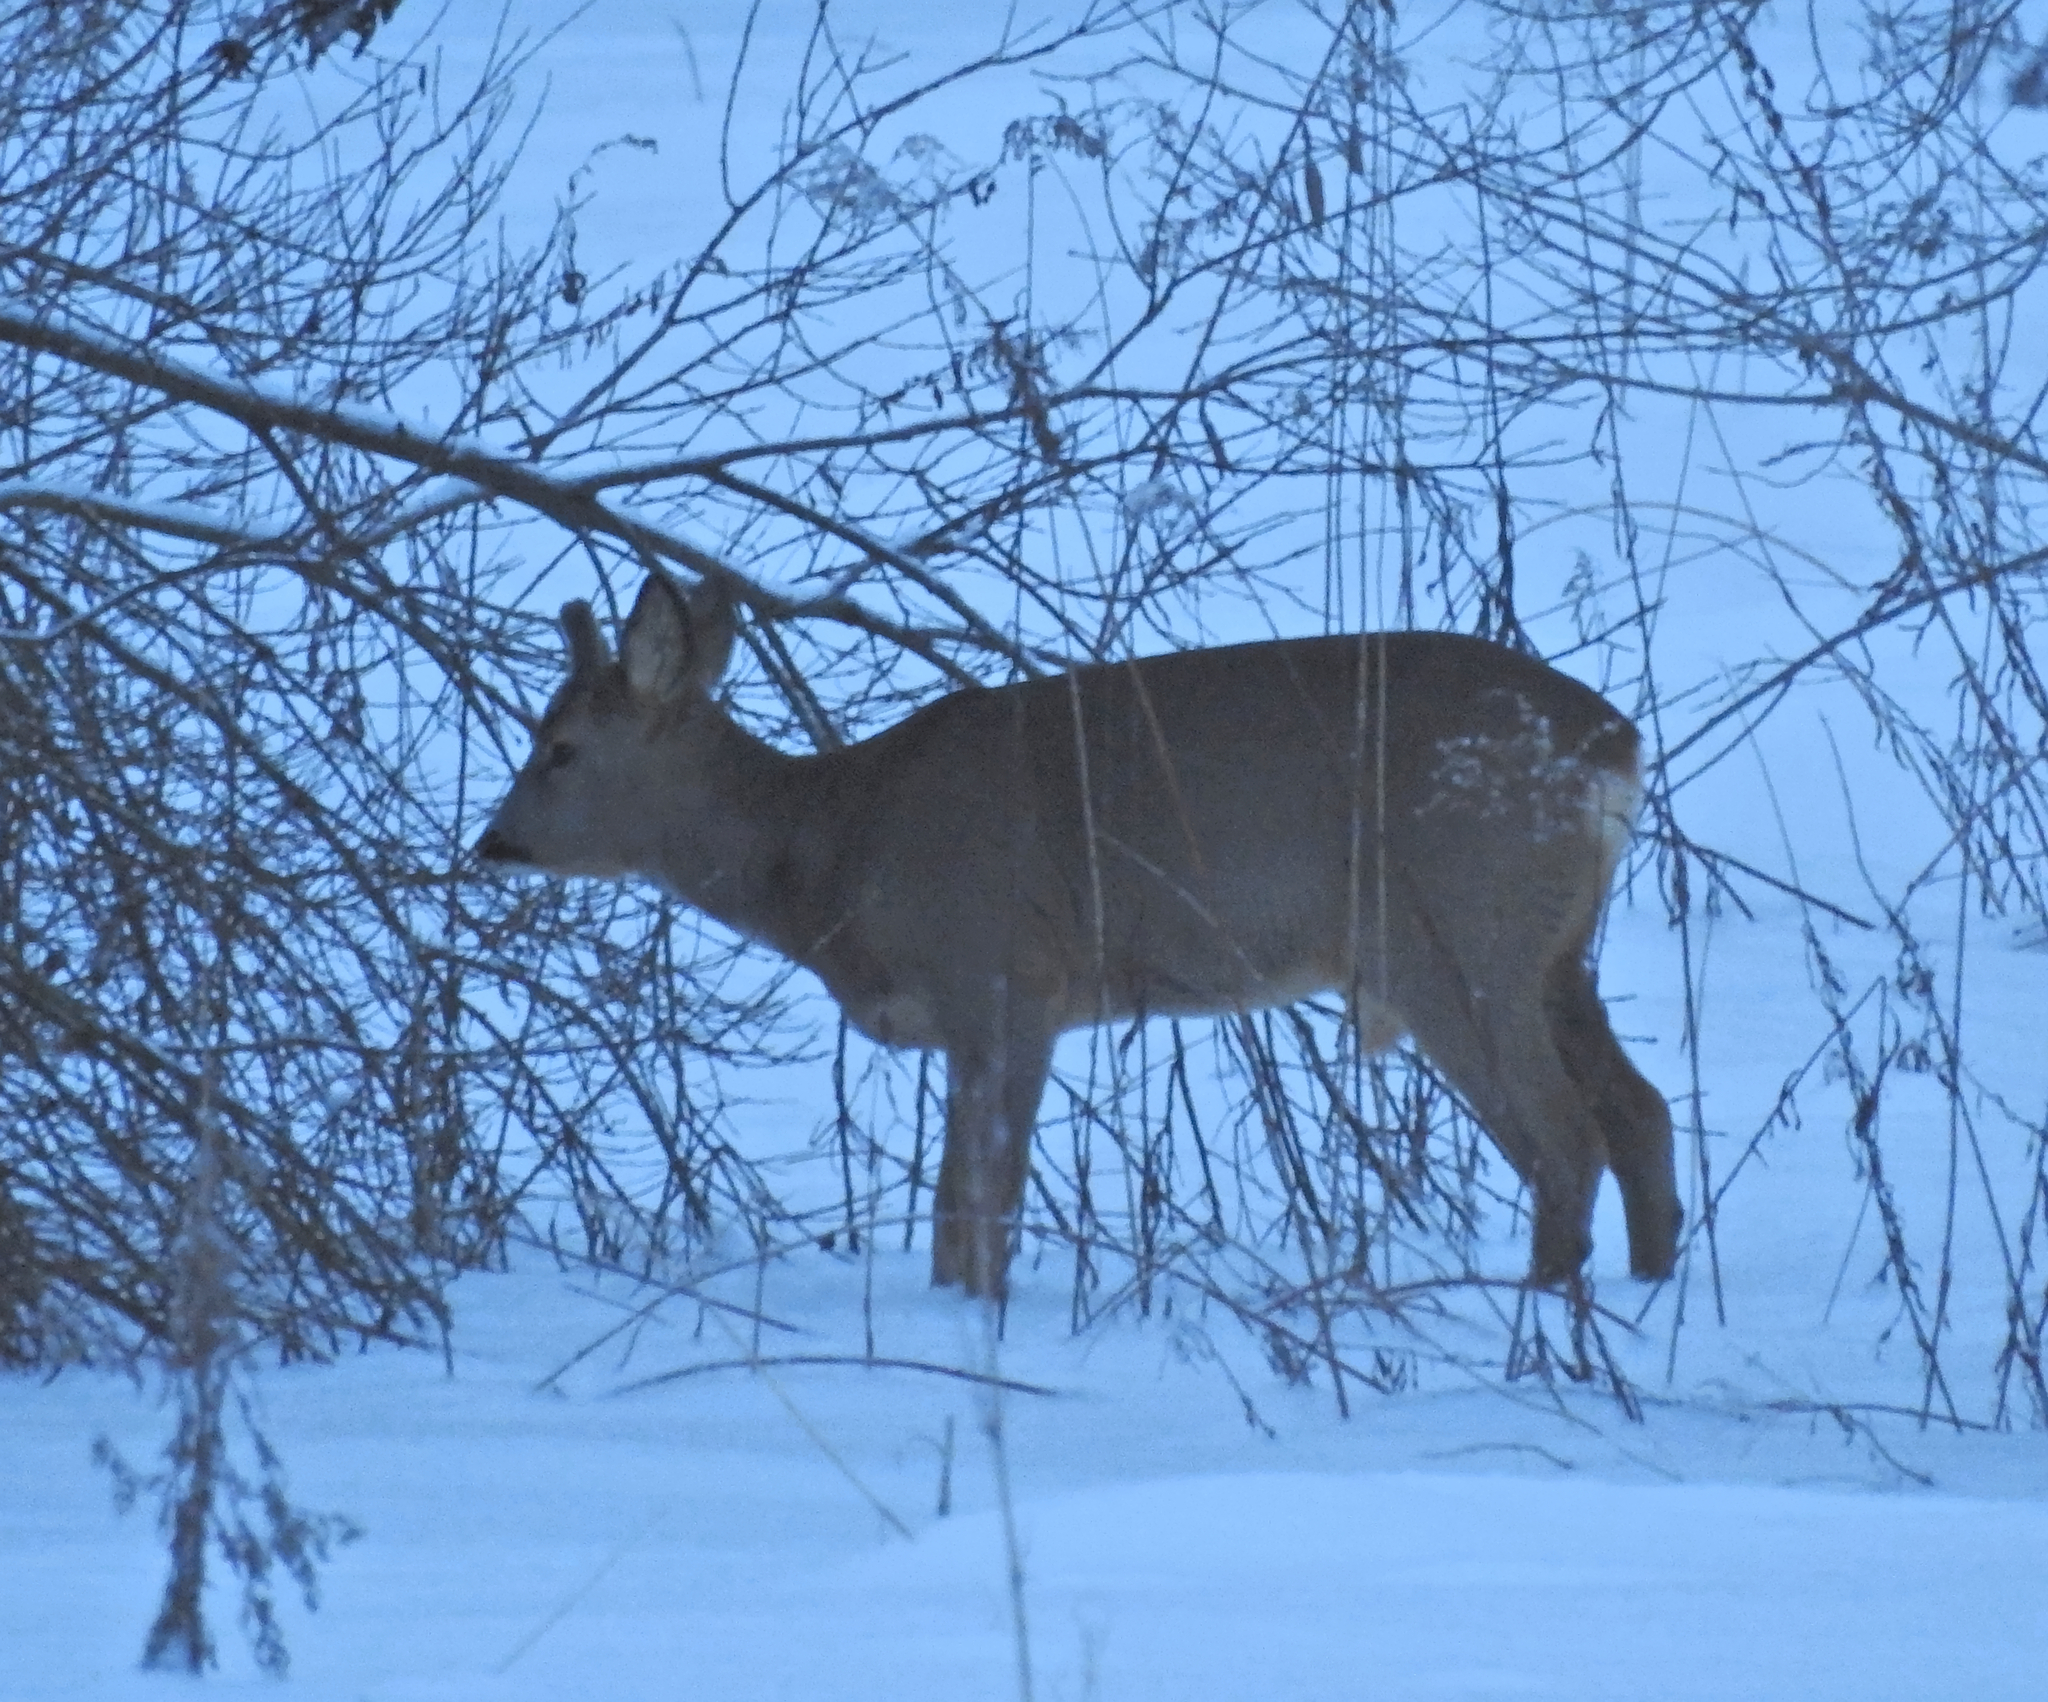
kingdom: Animalia
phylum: Chordata
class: Mammalia
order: Artiodactyla
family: Cervidae
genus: Capreolus
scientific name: Capreolus capreolus
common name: Western roe deer
